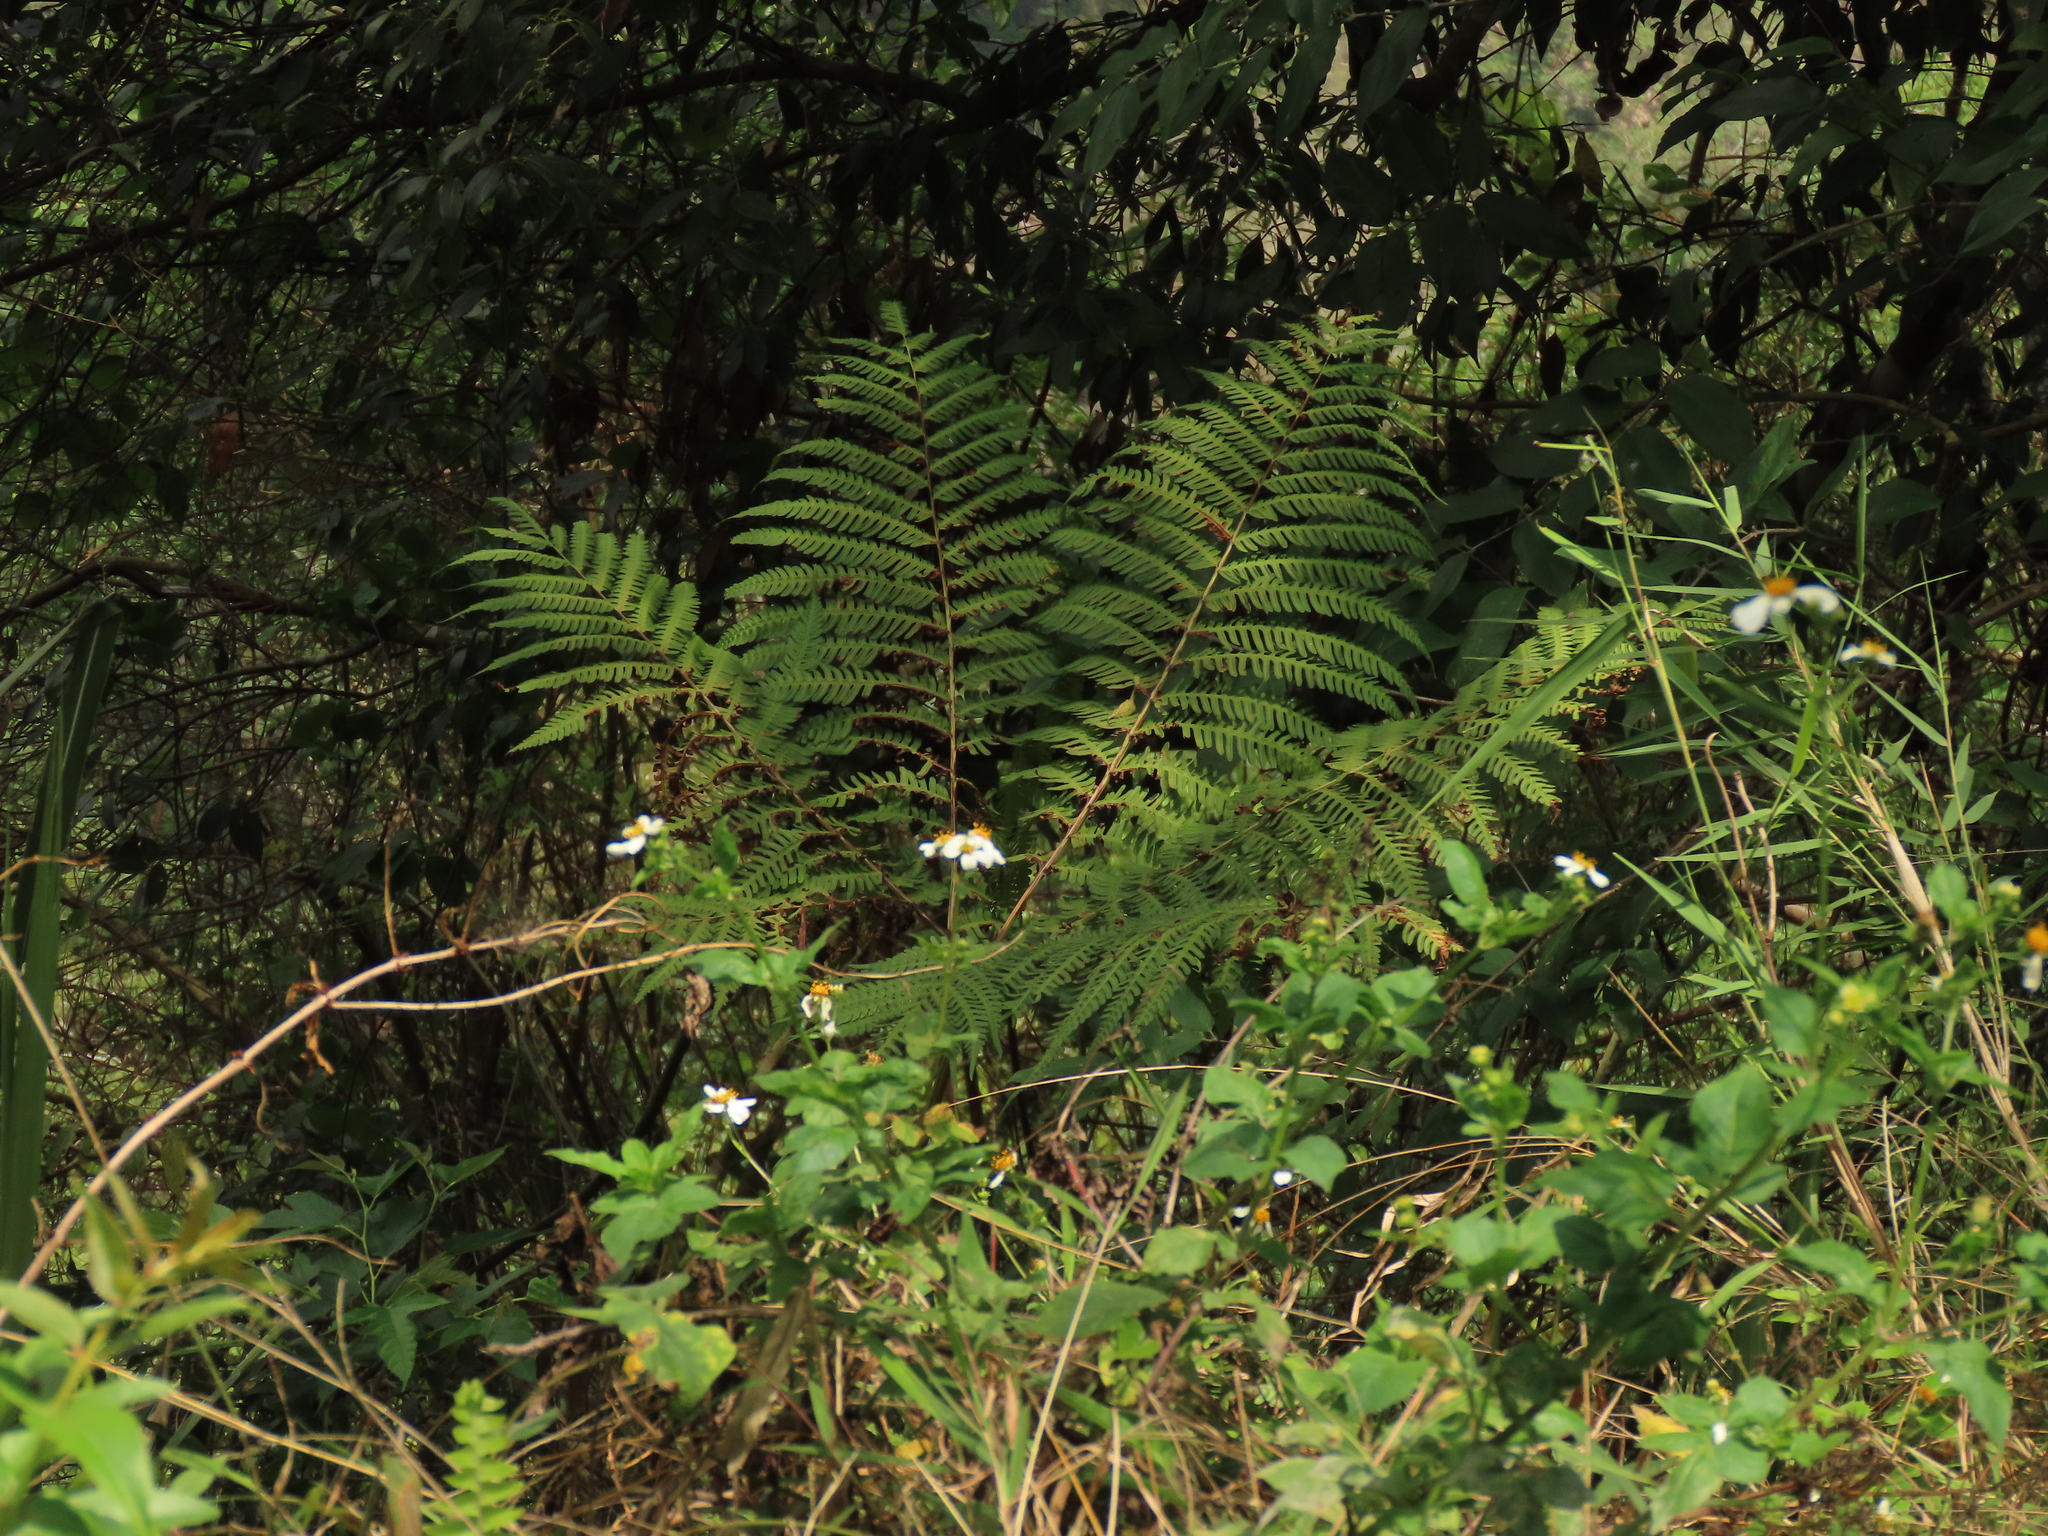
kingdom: Plantae
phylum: Tracheophyta
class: Polypodiopsida
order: Polypodiales
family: Pteridaceae
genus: Pteris
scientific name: Pteris wallichiana
